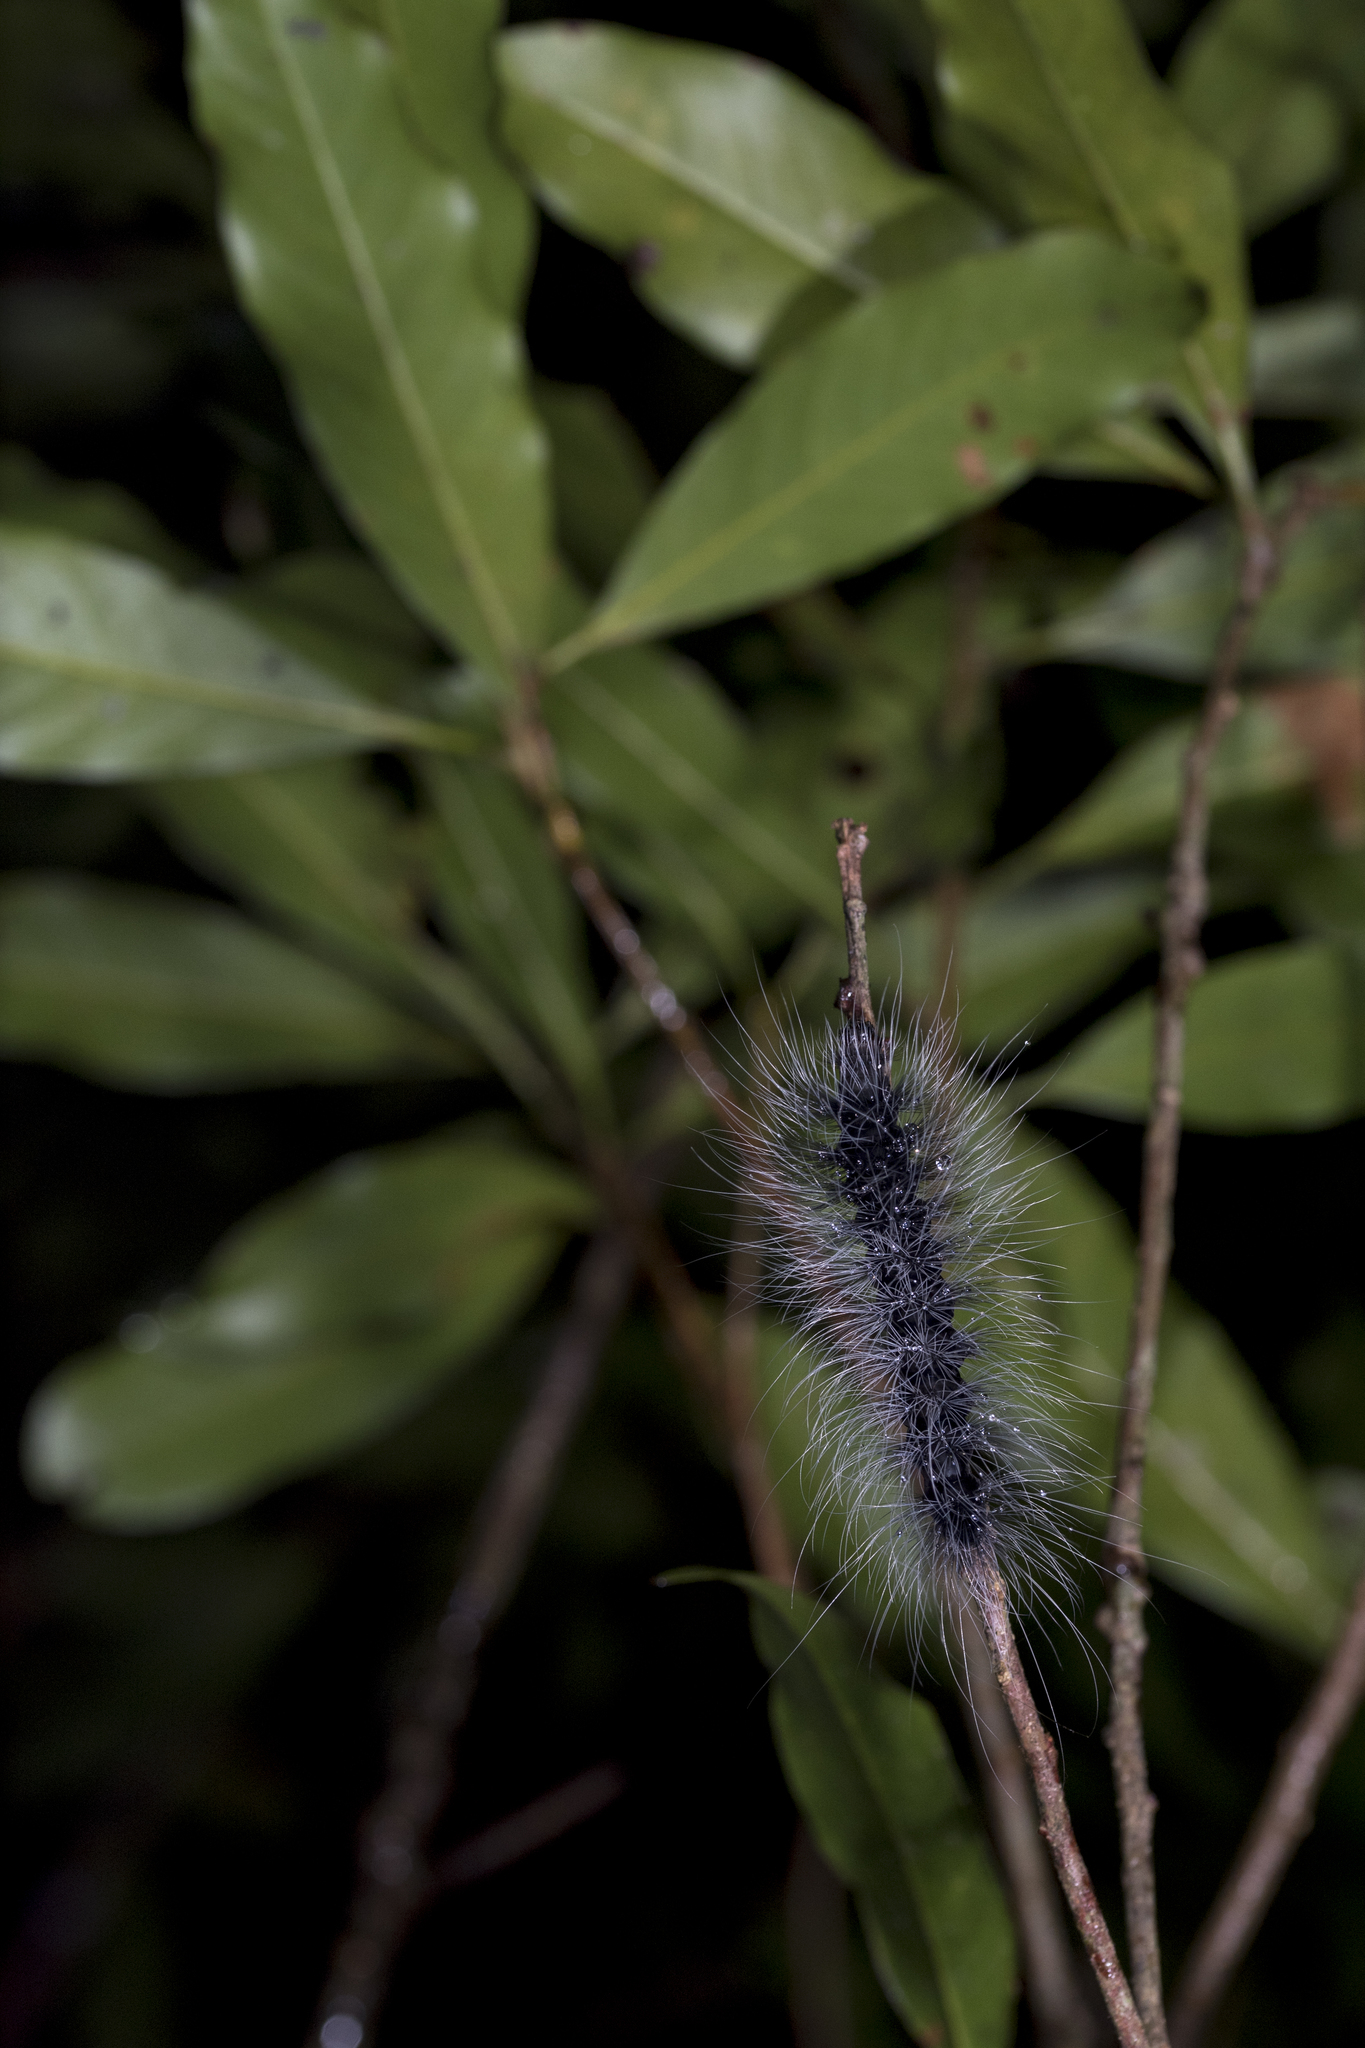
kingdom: Animalia
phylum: Arthropoda
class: Insecta
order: Lepidoptera
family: Erebidae
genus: Macrobrochis
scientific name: Macrobrochis gigas
